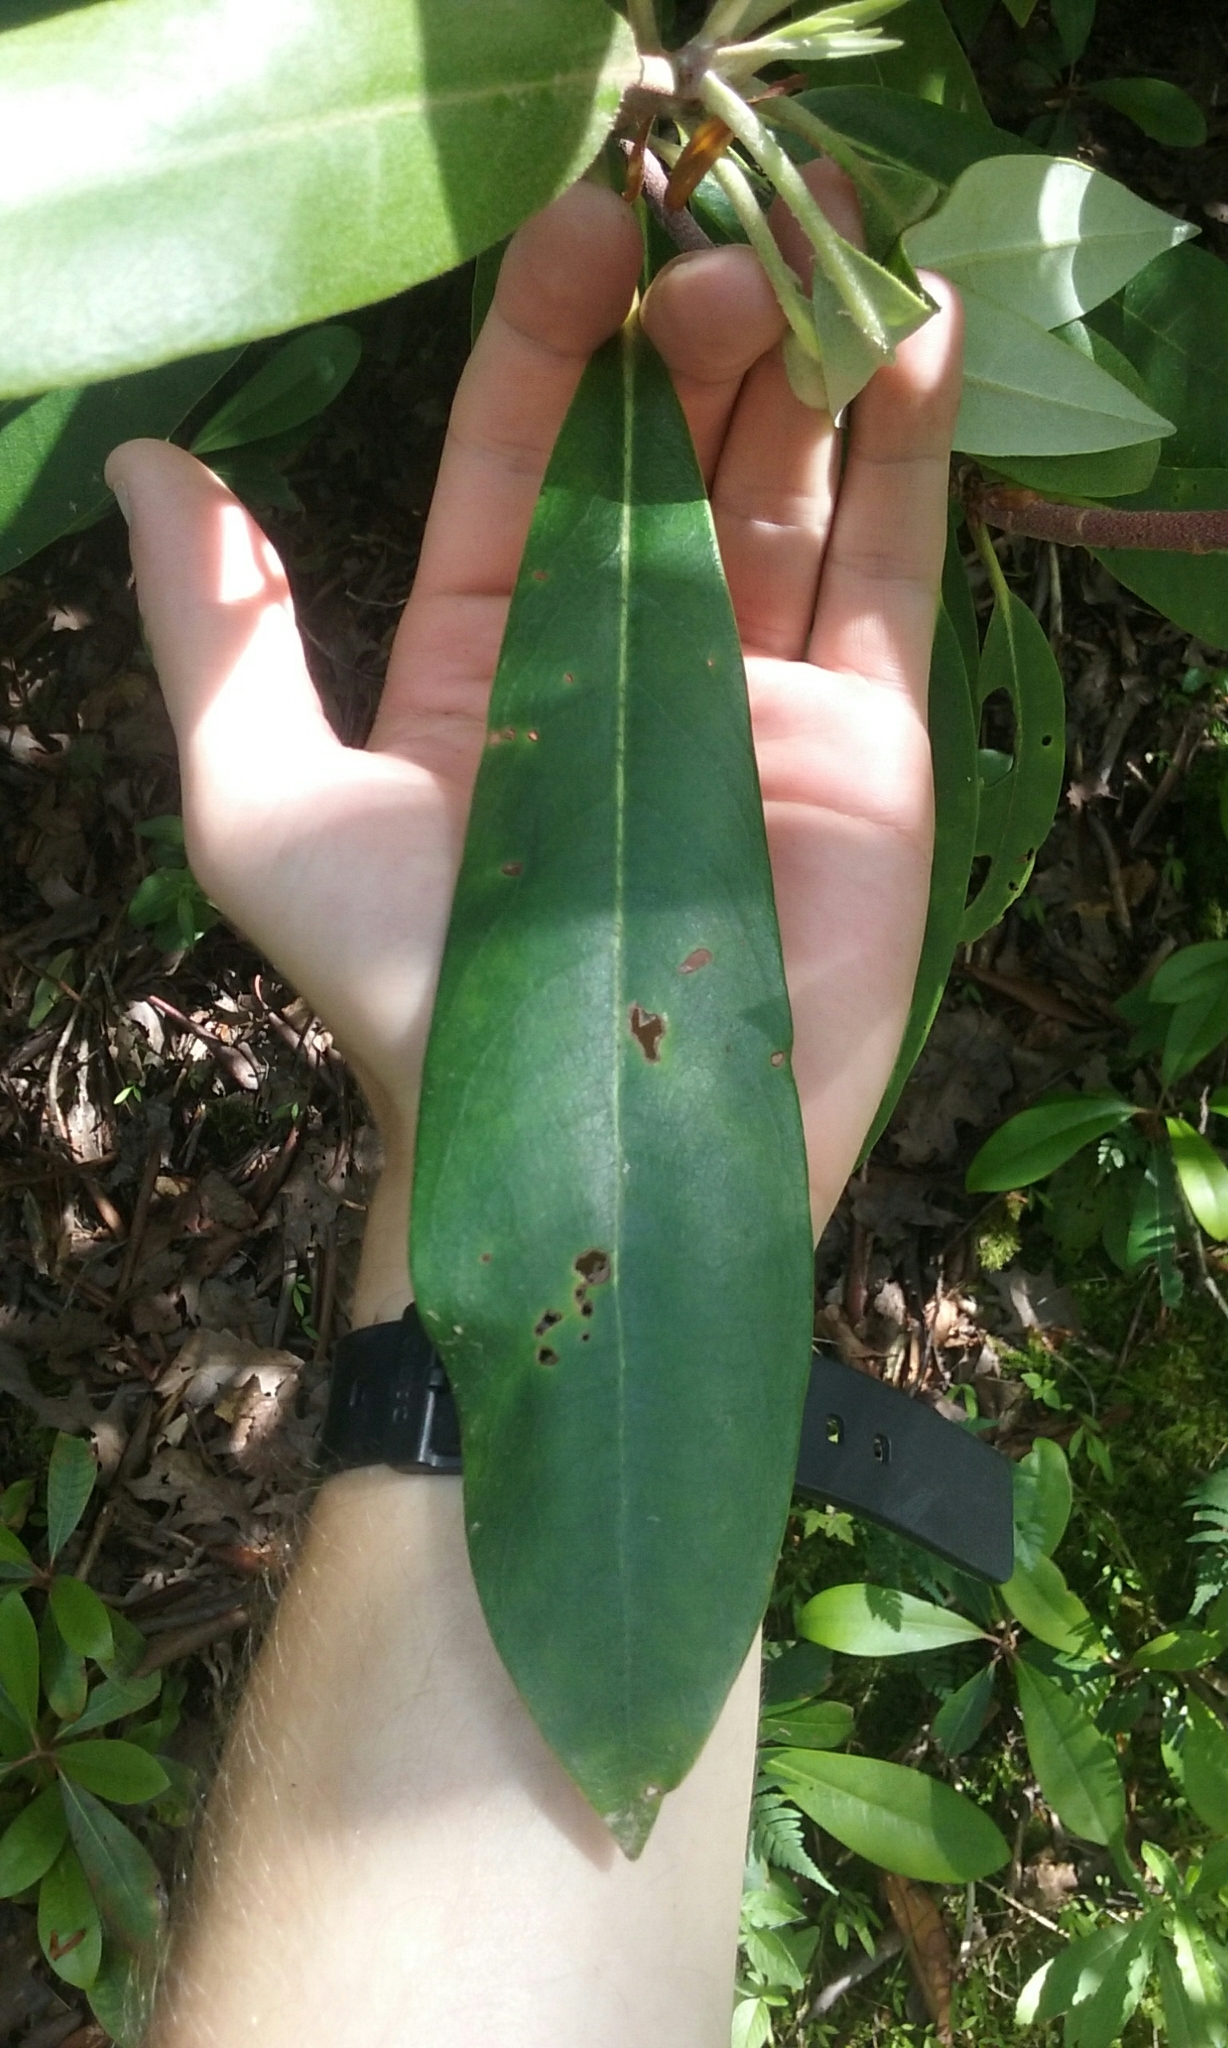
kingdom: Plantae
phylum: Tracheophyta
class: Magnoliopsida
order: Ericales
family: Ericaceae
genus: Rhododendron
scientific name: Rhododendron maximum
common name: Great rhododendron
